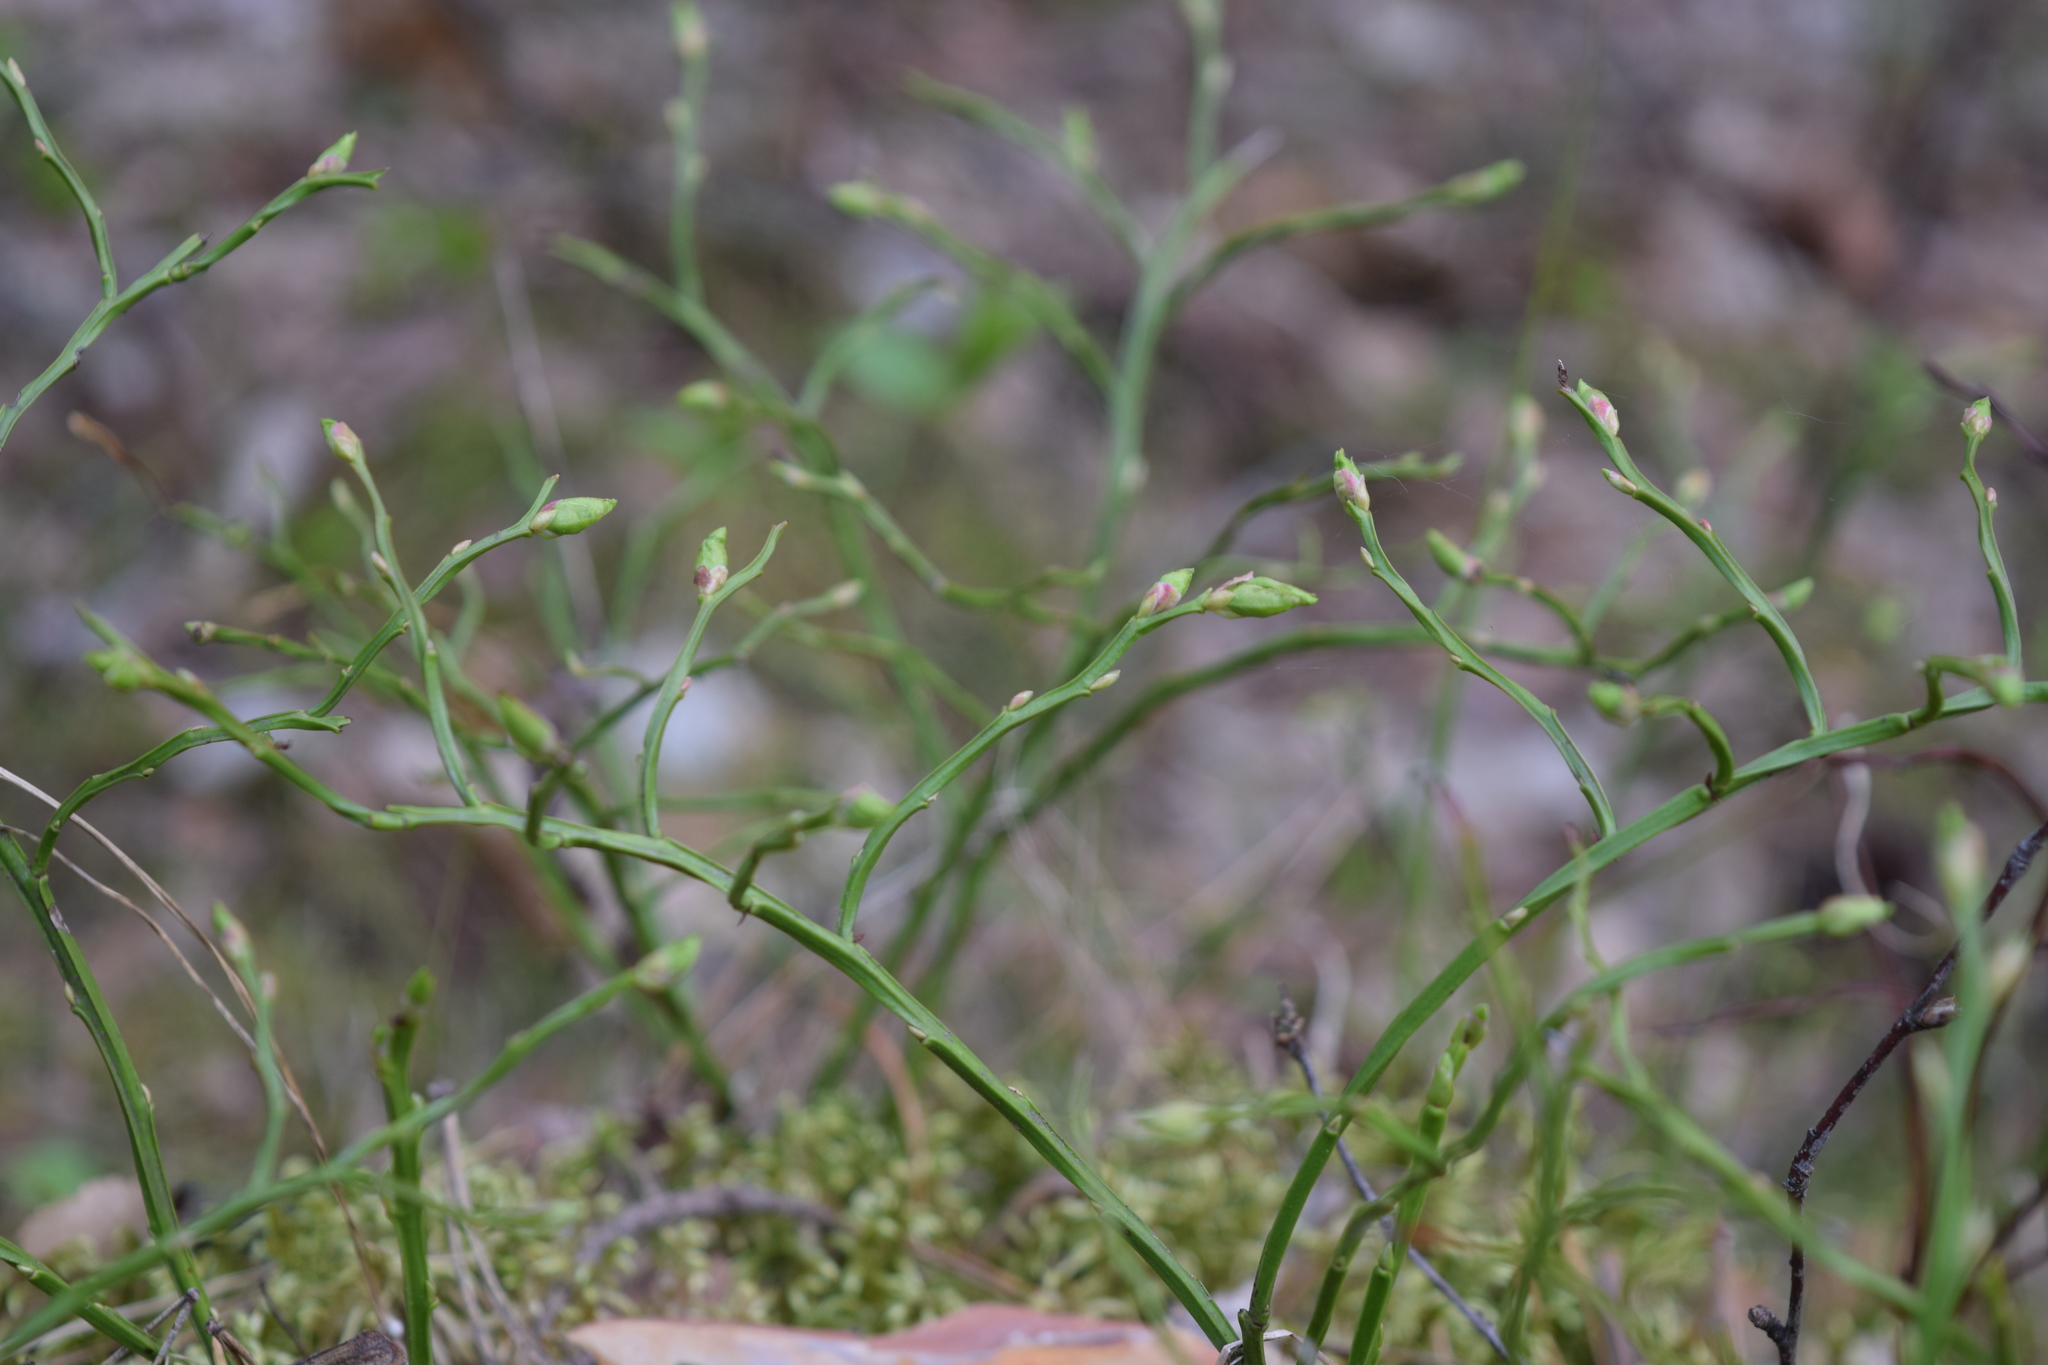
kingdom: Plantae
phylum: Tracheophyta
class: Magnoliopsida
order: Ericales
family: Ericaceae
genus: Vaccinium
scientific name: Vaccinium myrtillus
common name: Bilberry
